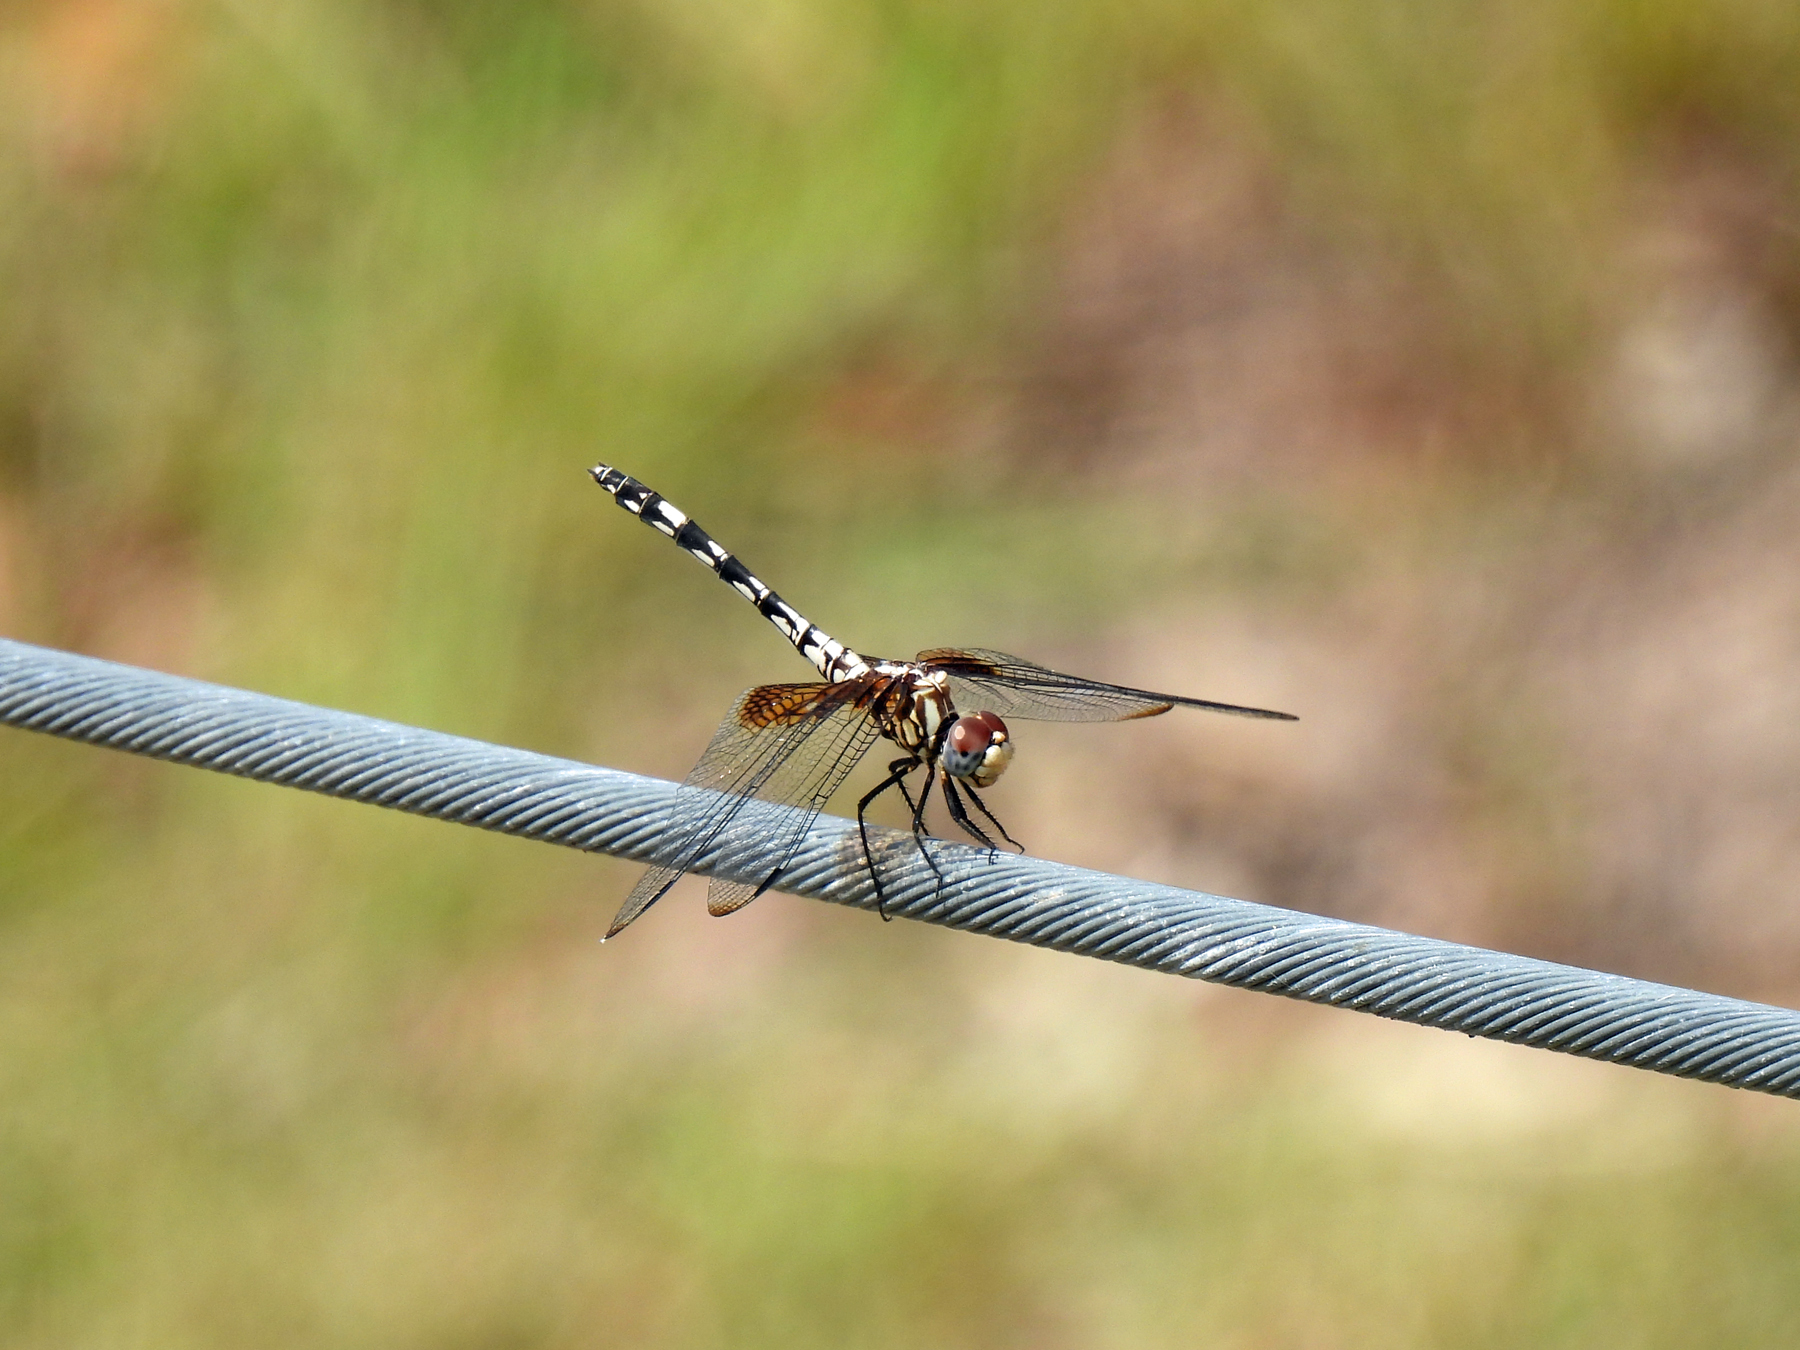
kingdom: Animalia
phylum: Arthropoda
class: Insecta
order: Odonata
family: Libellulidae
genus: Dythemis
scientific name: Dythemis fugax
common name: Checkered setwing
